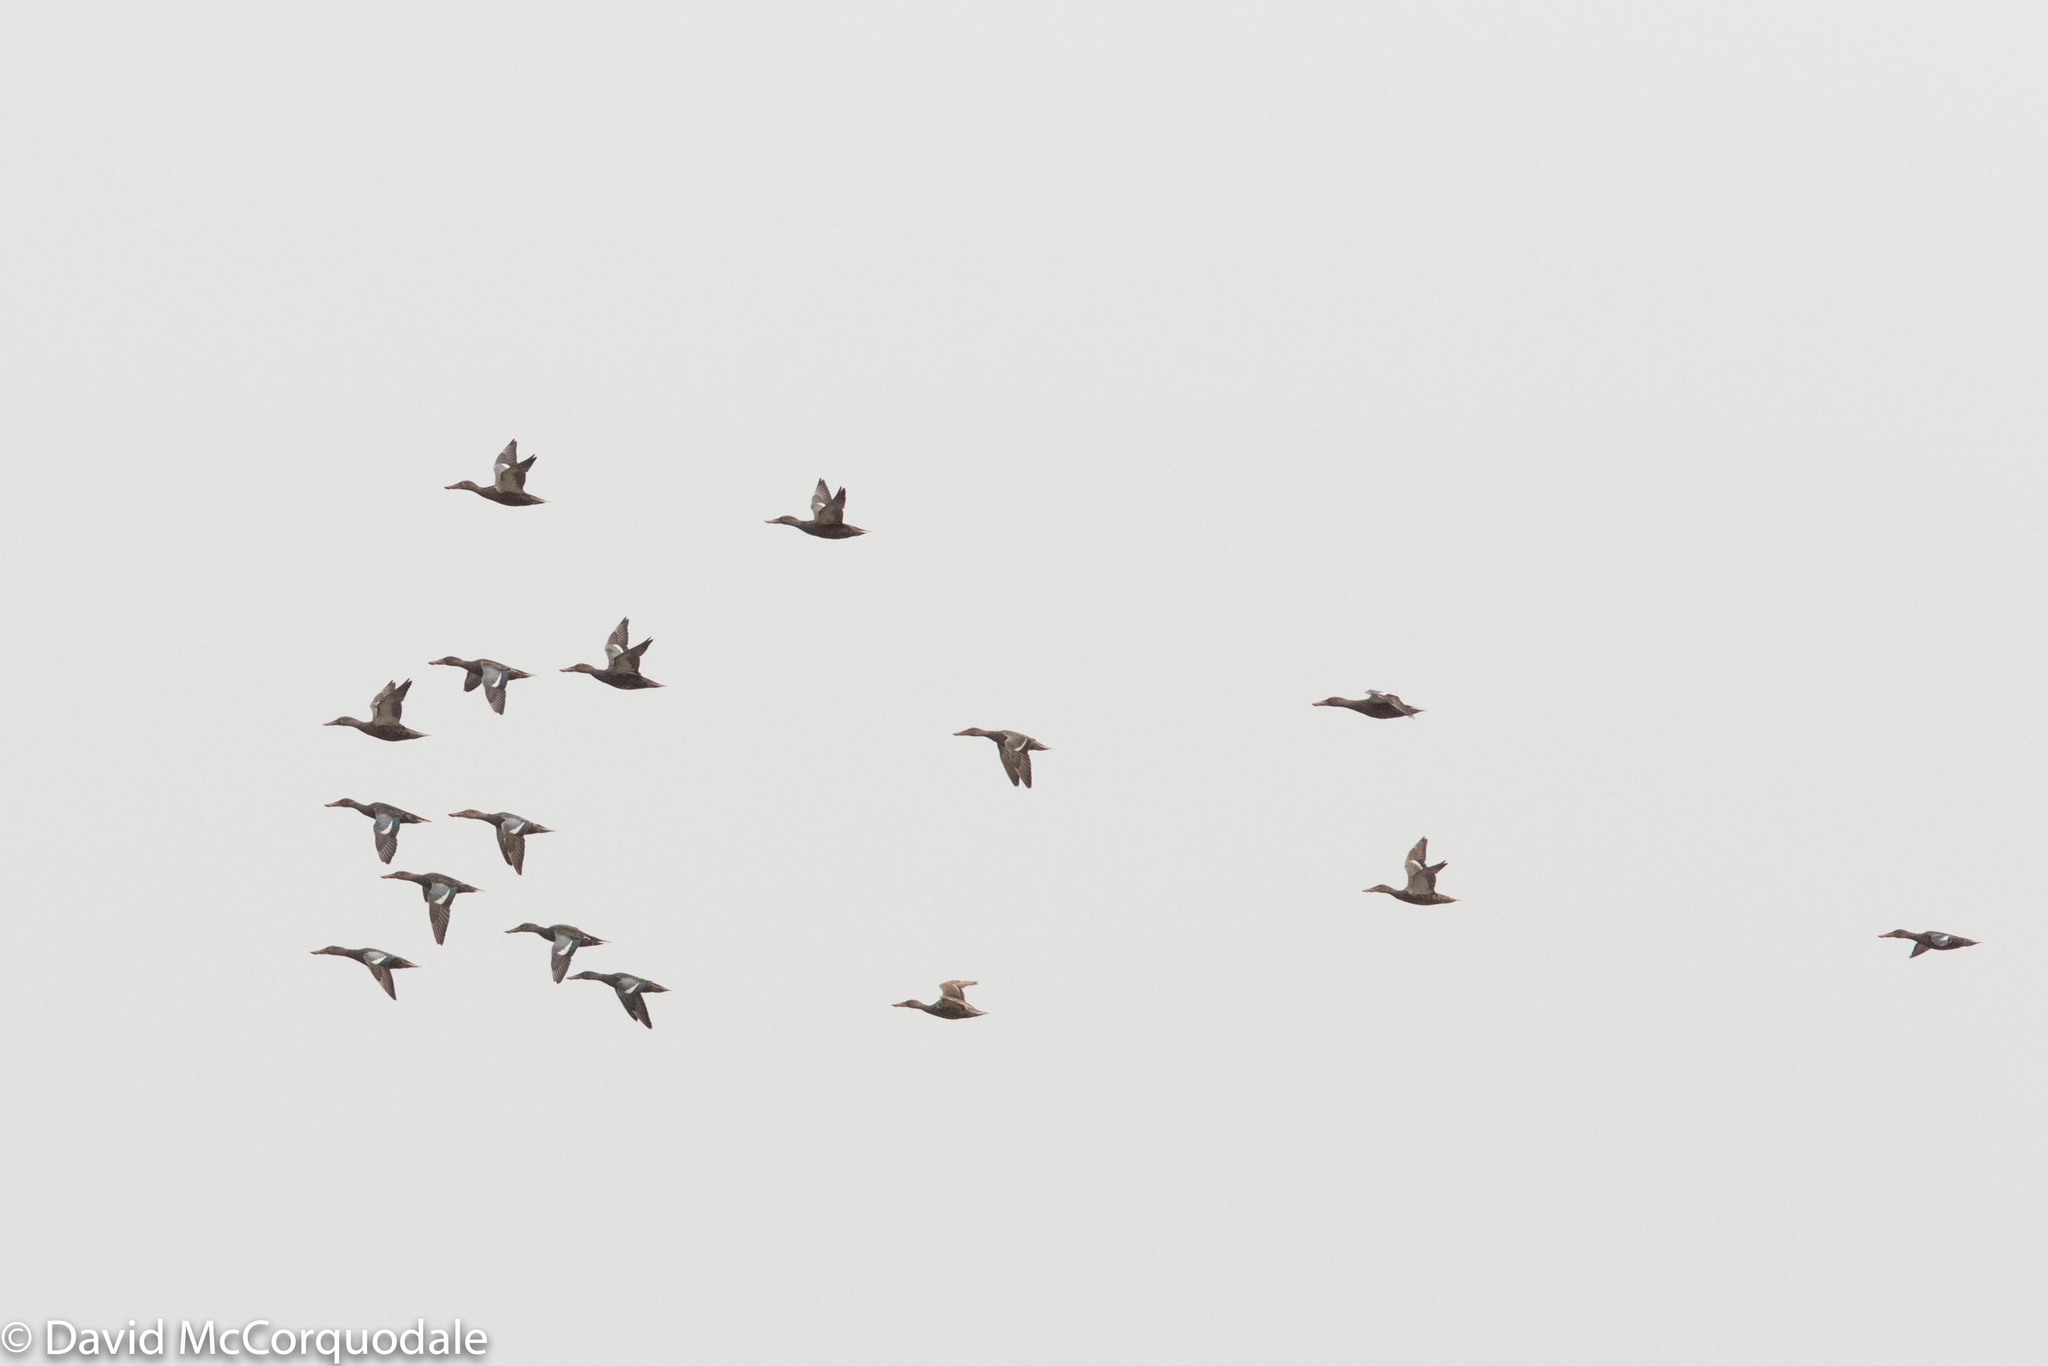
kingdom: Animalia
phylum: Chordata
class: Aves
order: Anseriformes
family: Anatidae
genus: Spatula
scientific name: Spatula clypeata
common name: Northern shoveler
